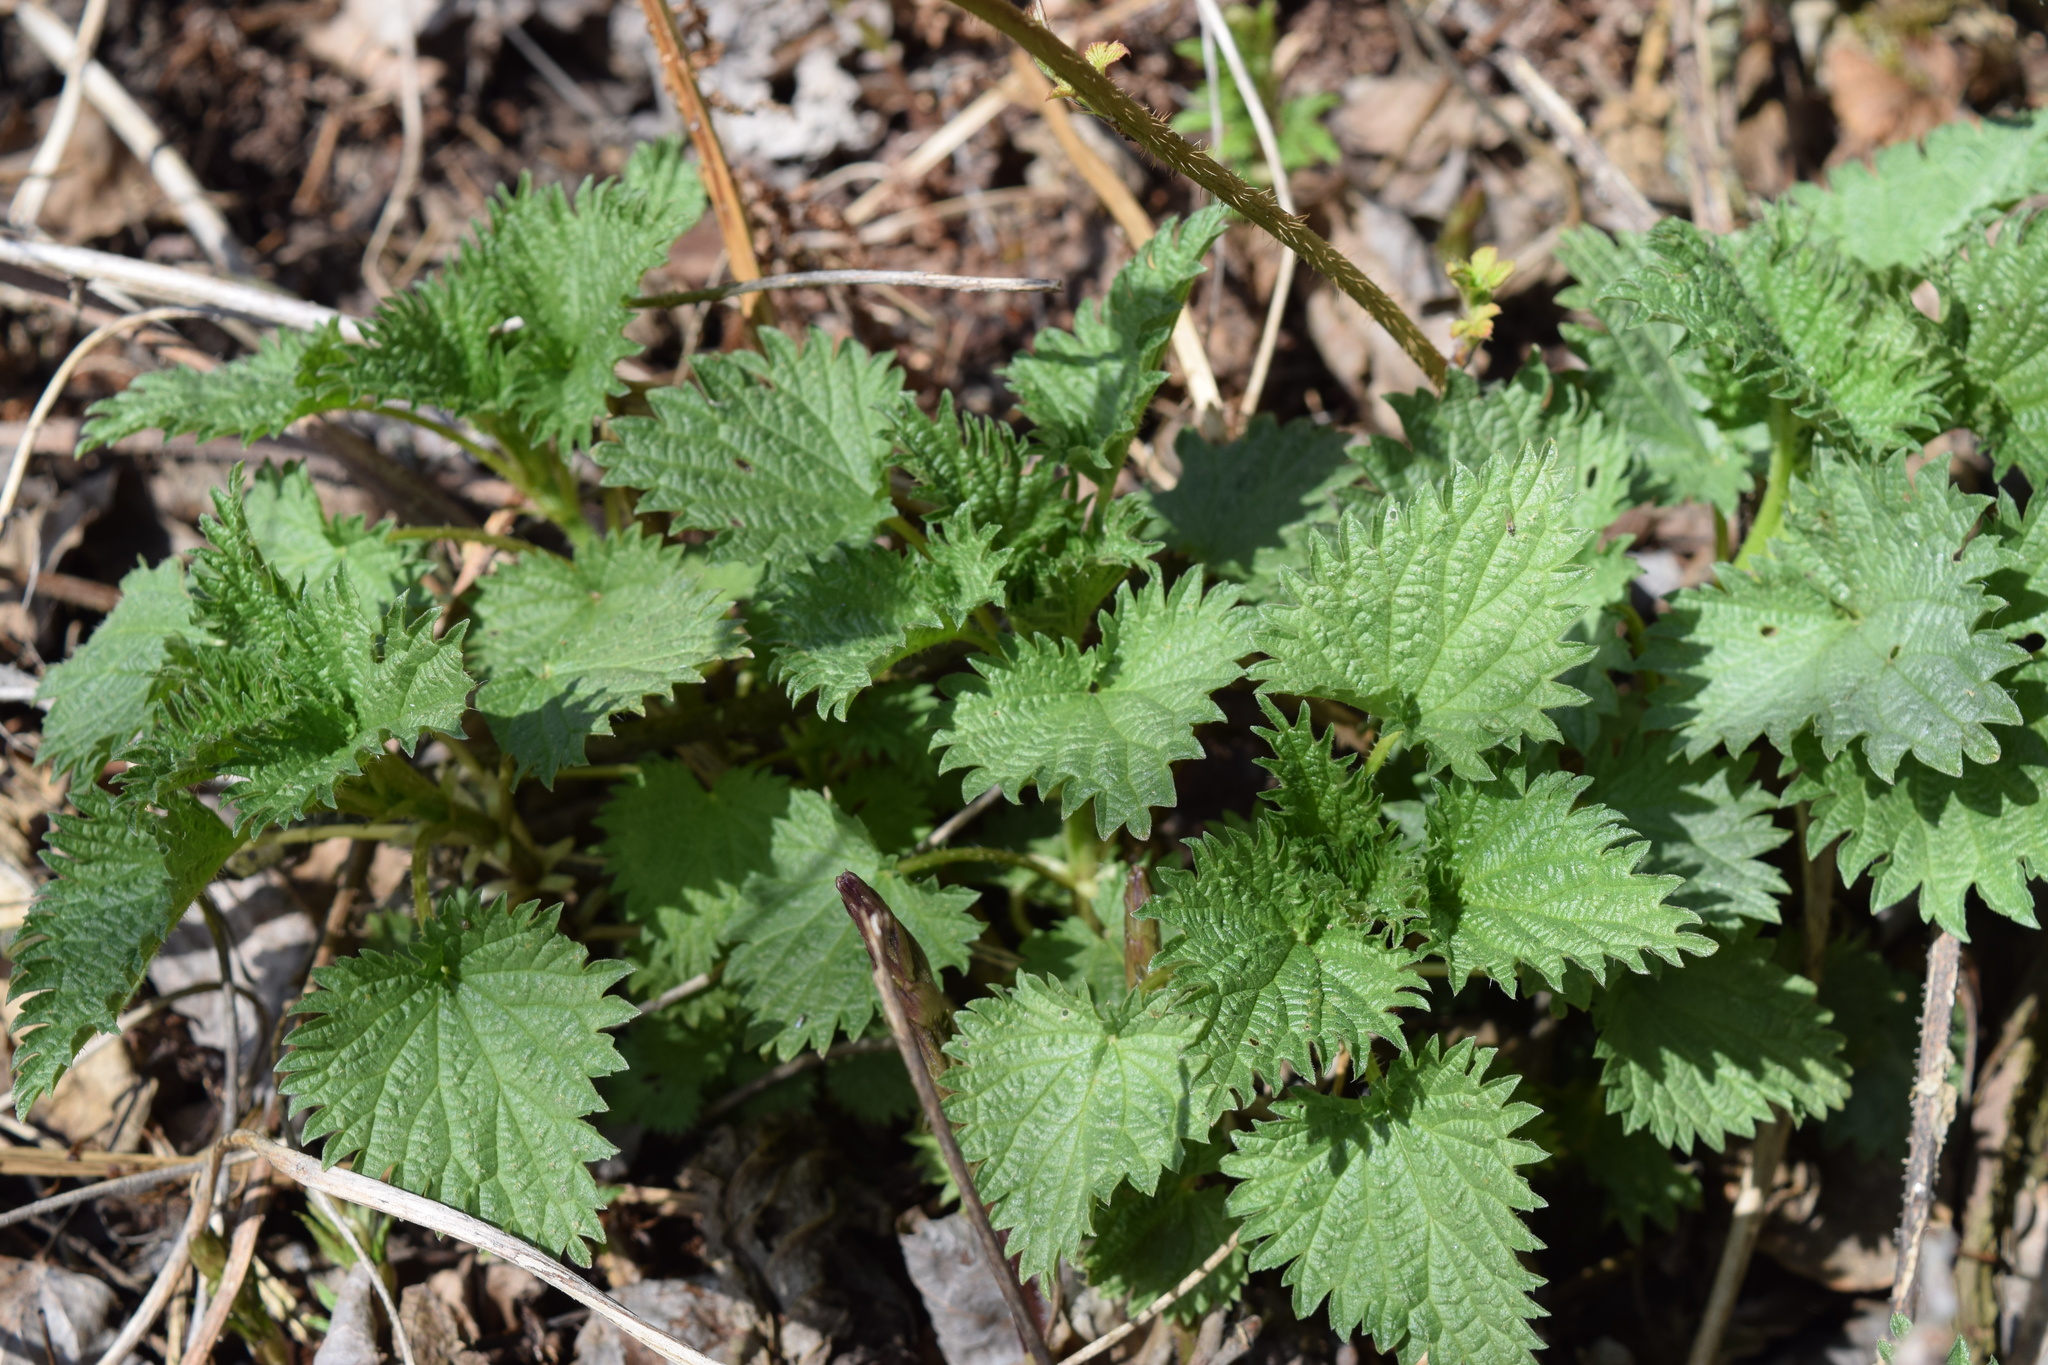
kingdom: Plantae
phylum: Tracheophyta
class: Magnoliopsida
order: Rosales
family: Urticaceae
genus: Urtica
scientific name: Urtica dioica
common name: Common nettle
